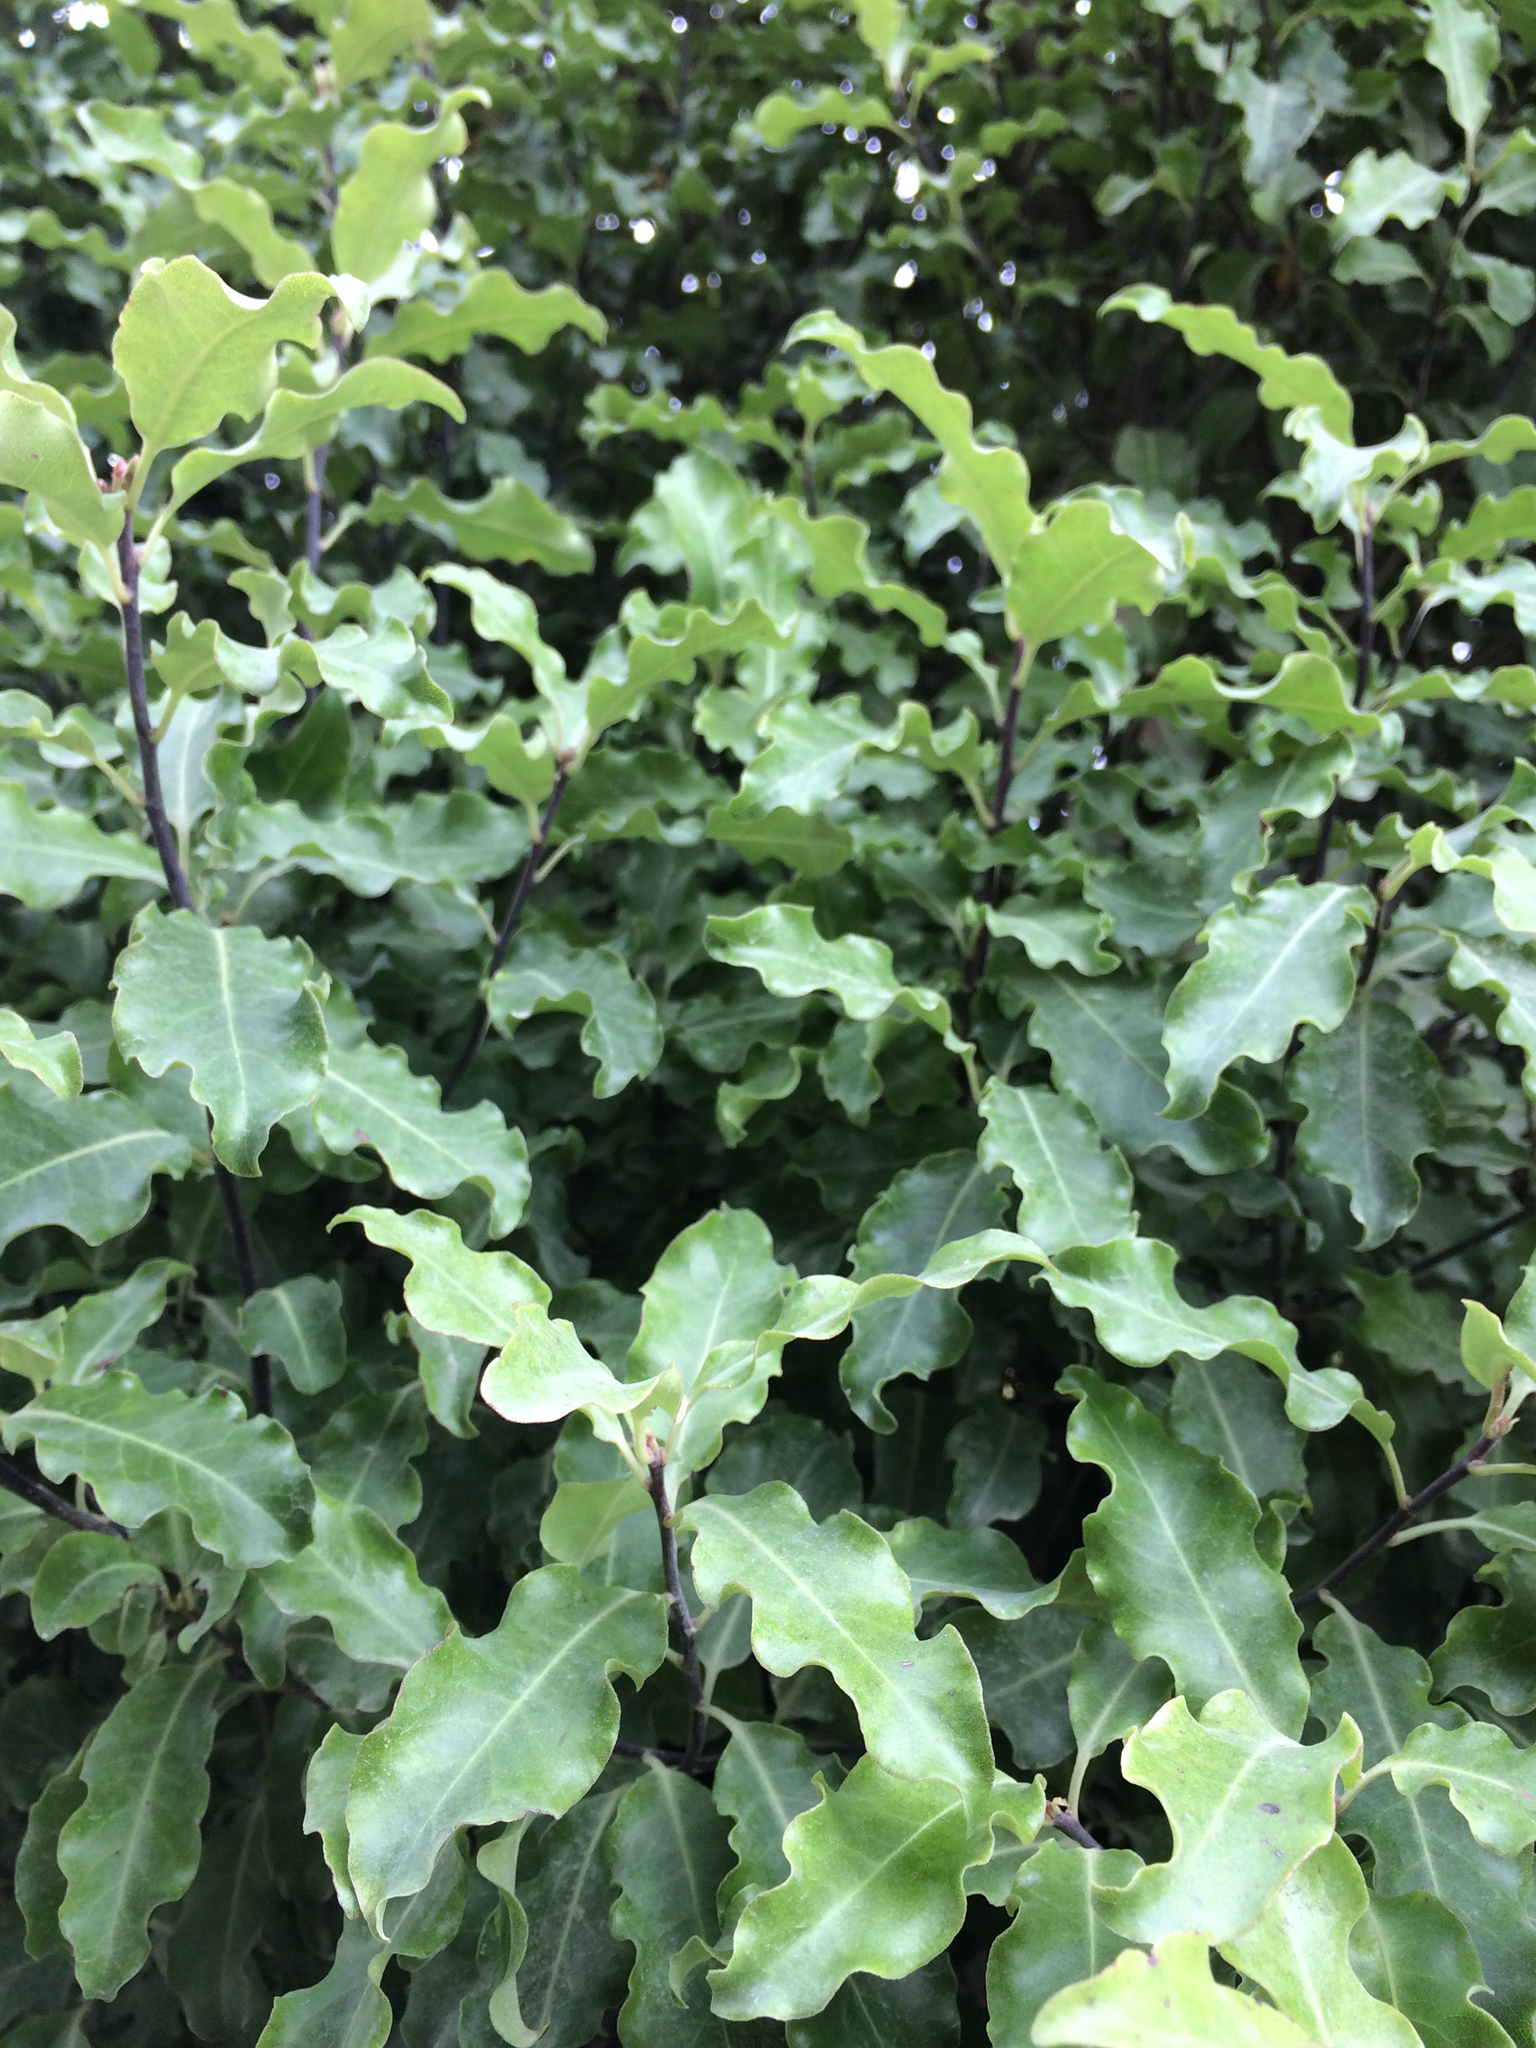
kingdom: Plantae
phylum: Tracheophyta
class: Magnoliopsida
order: Apiales
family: Pittosporaceae
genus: Pittosporum
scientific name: Pittosporum tenuifolium
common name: Kohuhu
